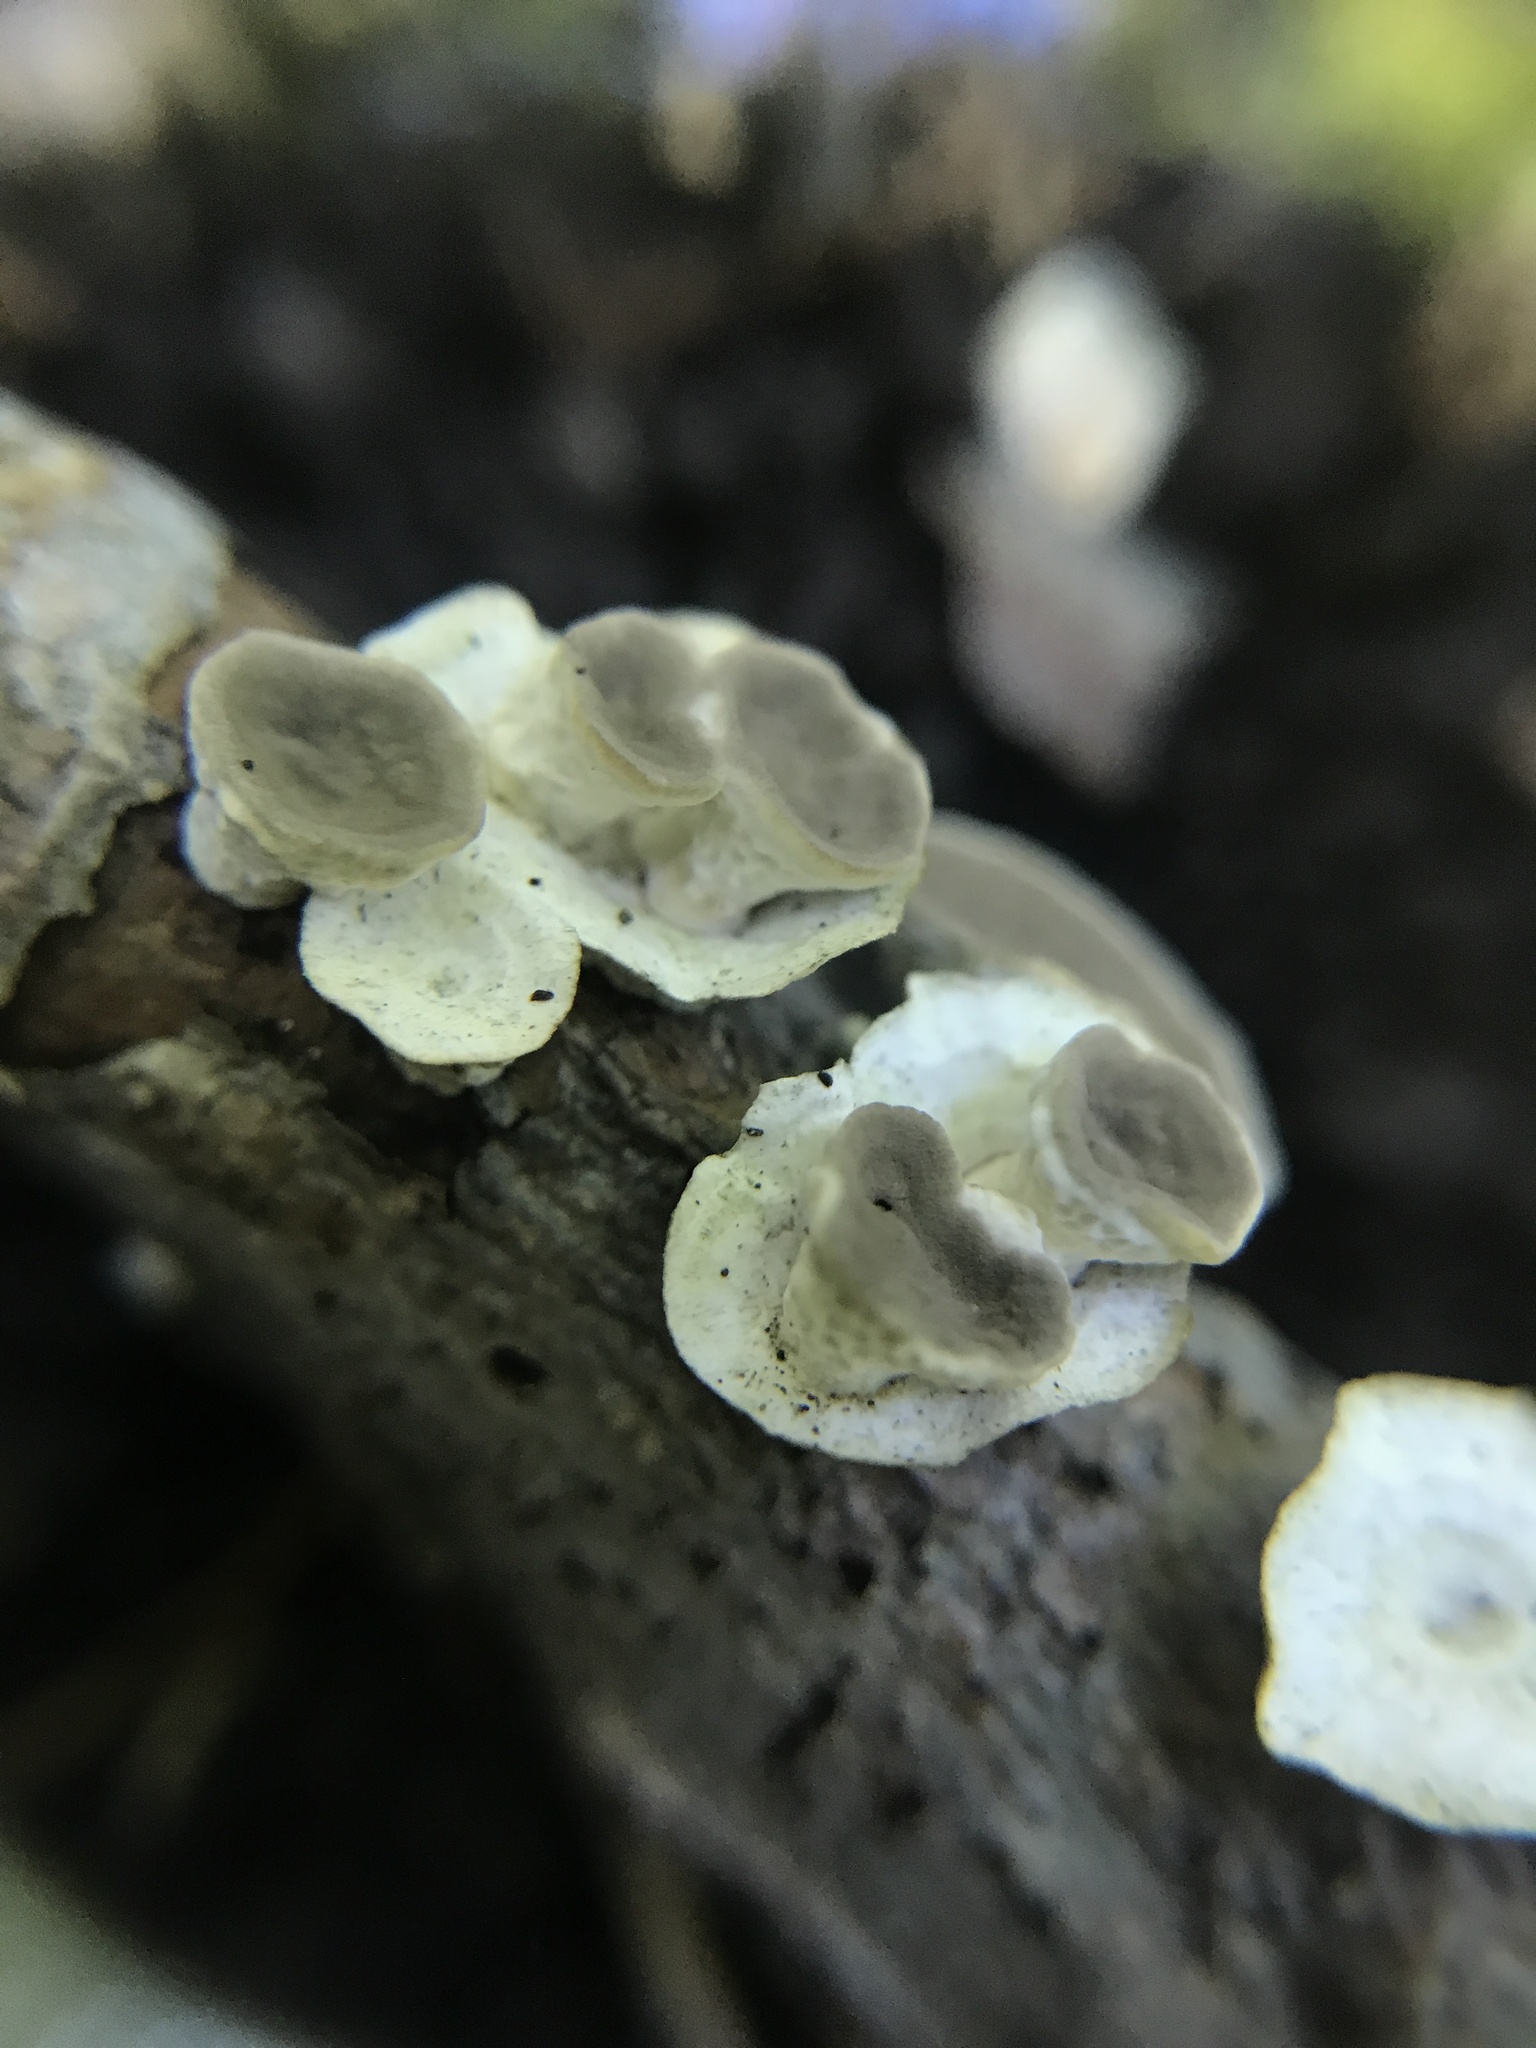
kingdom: Fungi
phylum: Basidiomycota
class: Agaricomycetes
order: Polyporales
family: Polyporaceae
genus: Poronidulus
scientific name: Poronidulus conchifer
